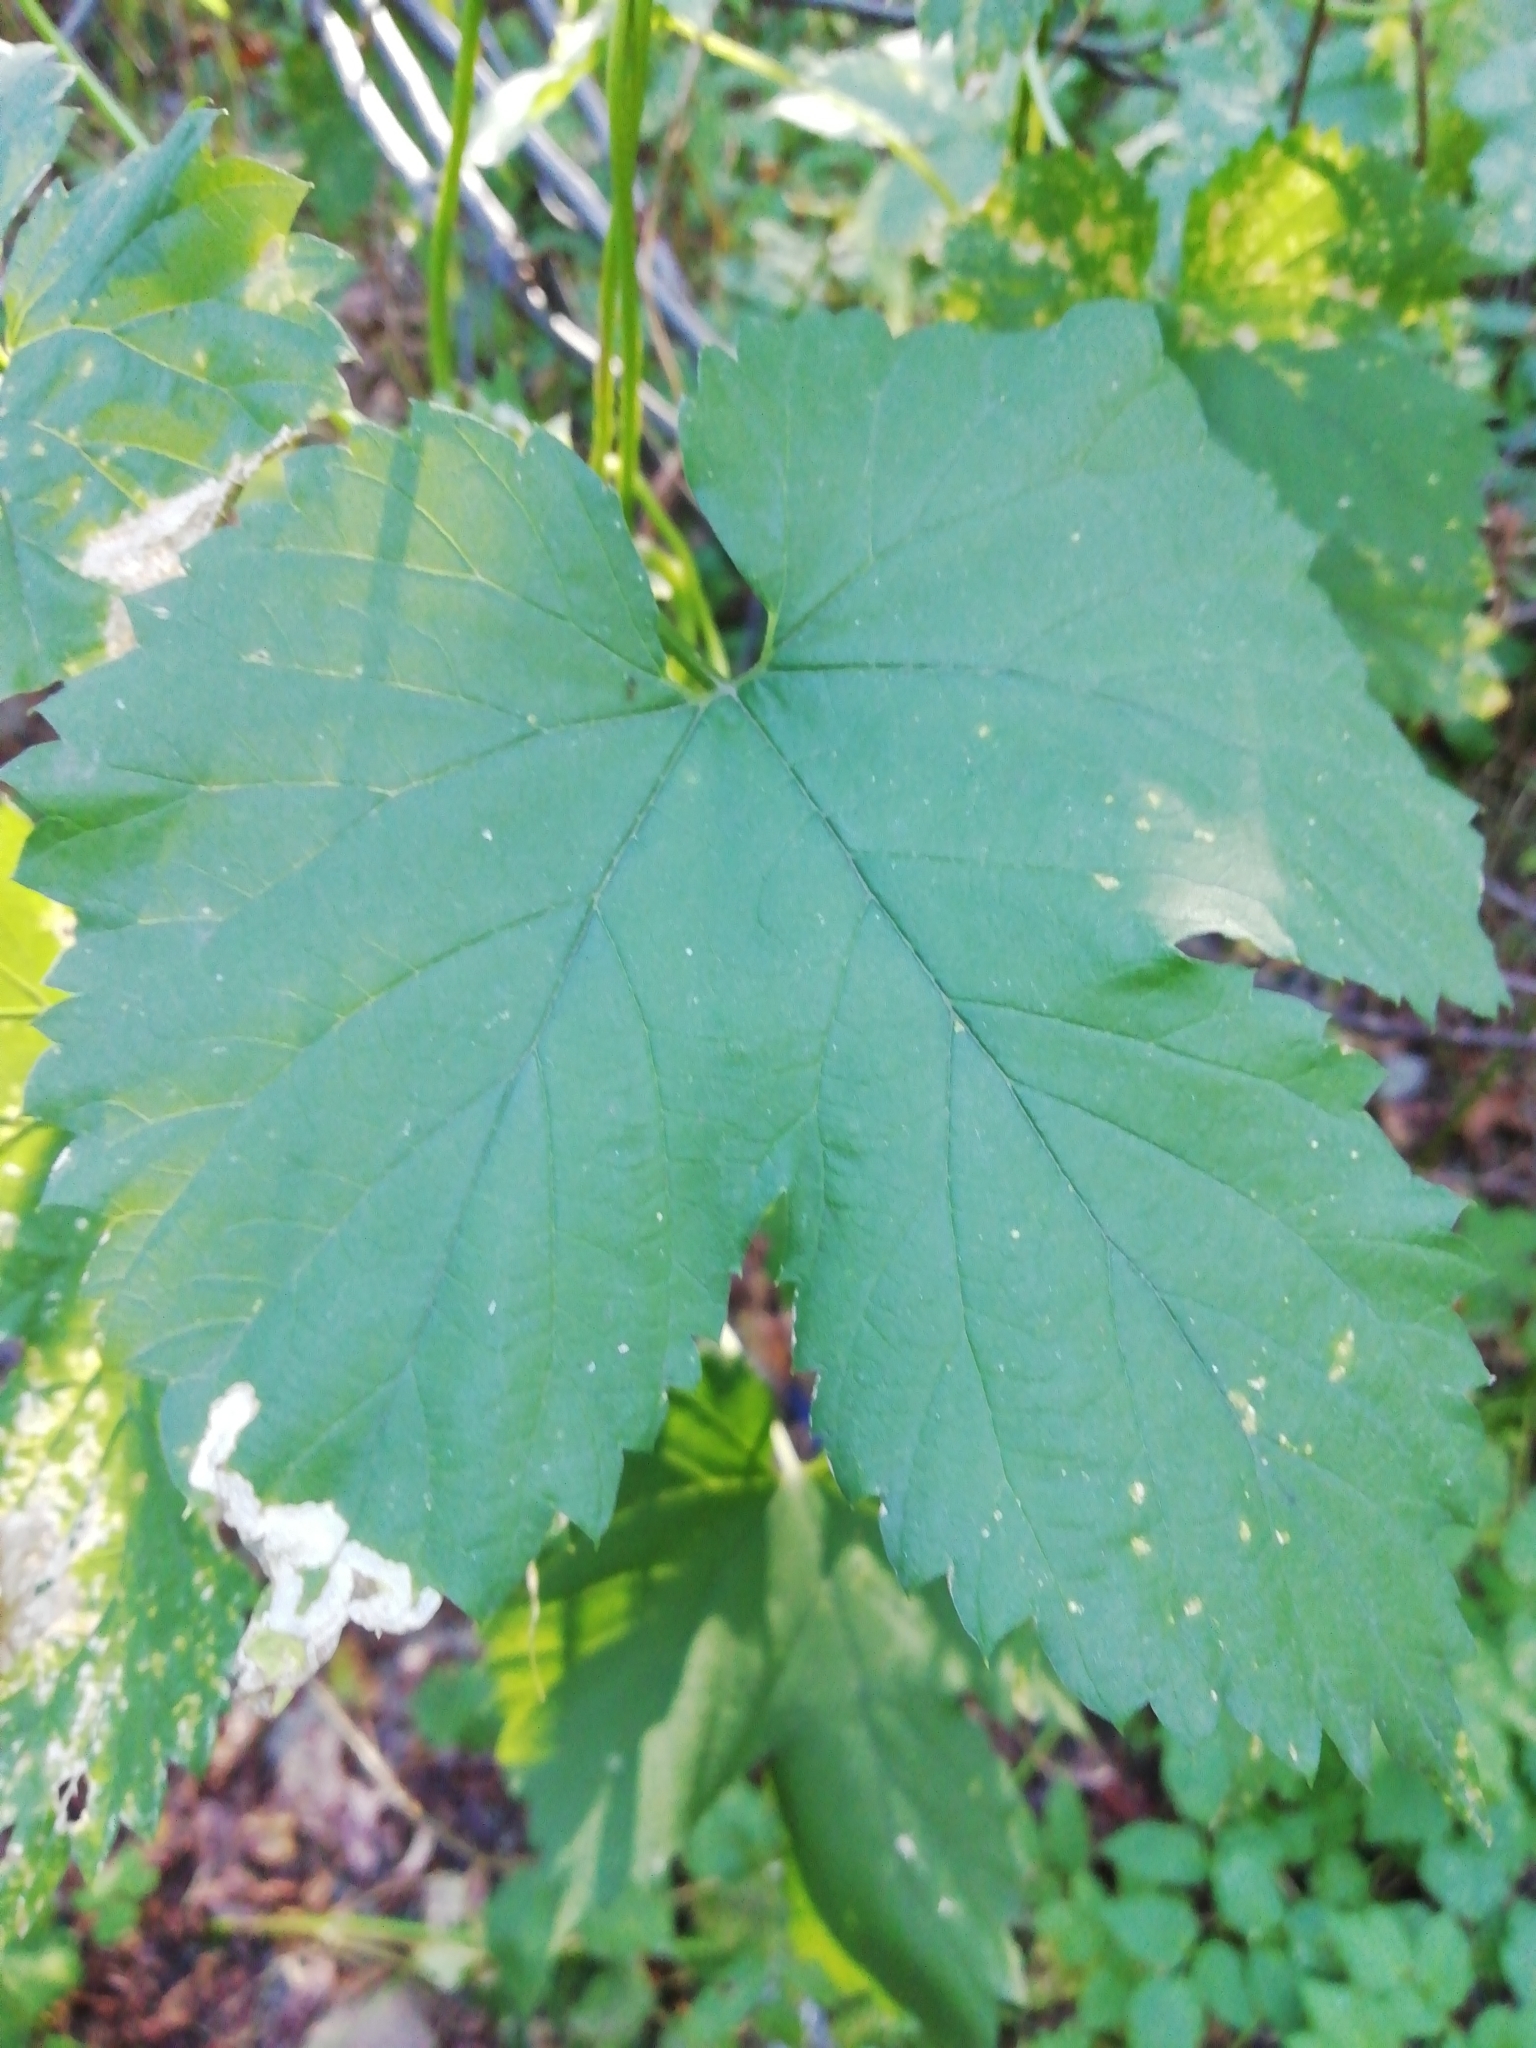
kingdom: Plantae
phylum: Tracheophyta
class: Magnoliopsida
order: Rosales
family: Cannabaceae
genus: Humulus
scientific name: Humulus lupulus
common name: Hop
